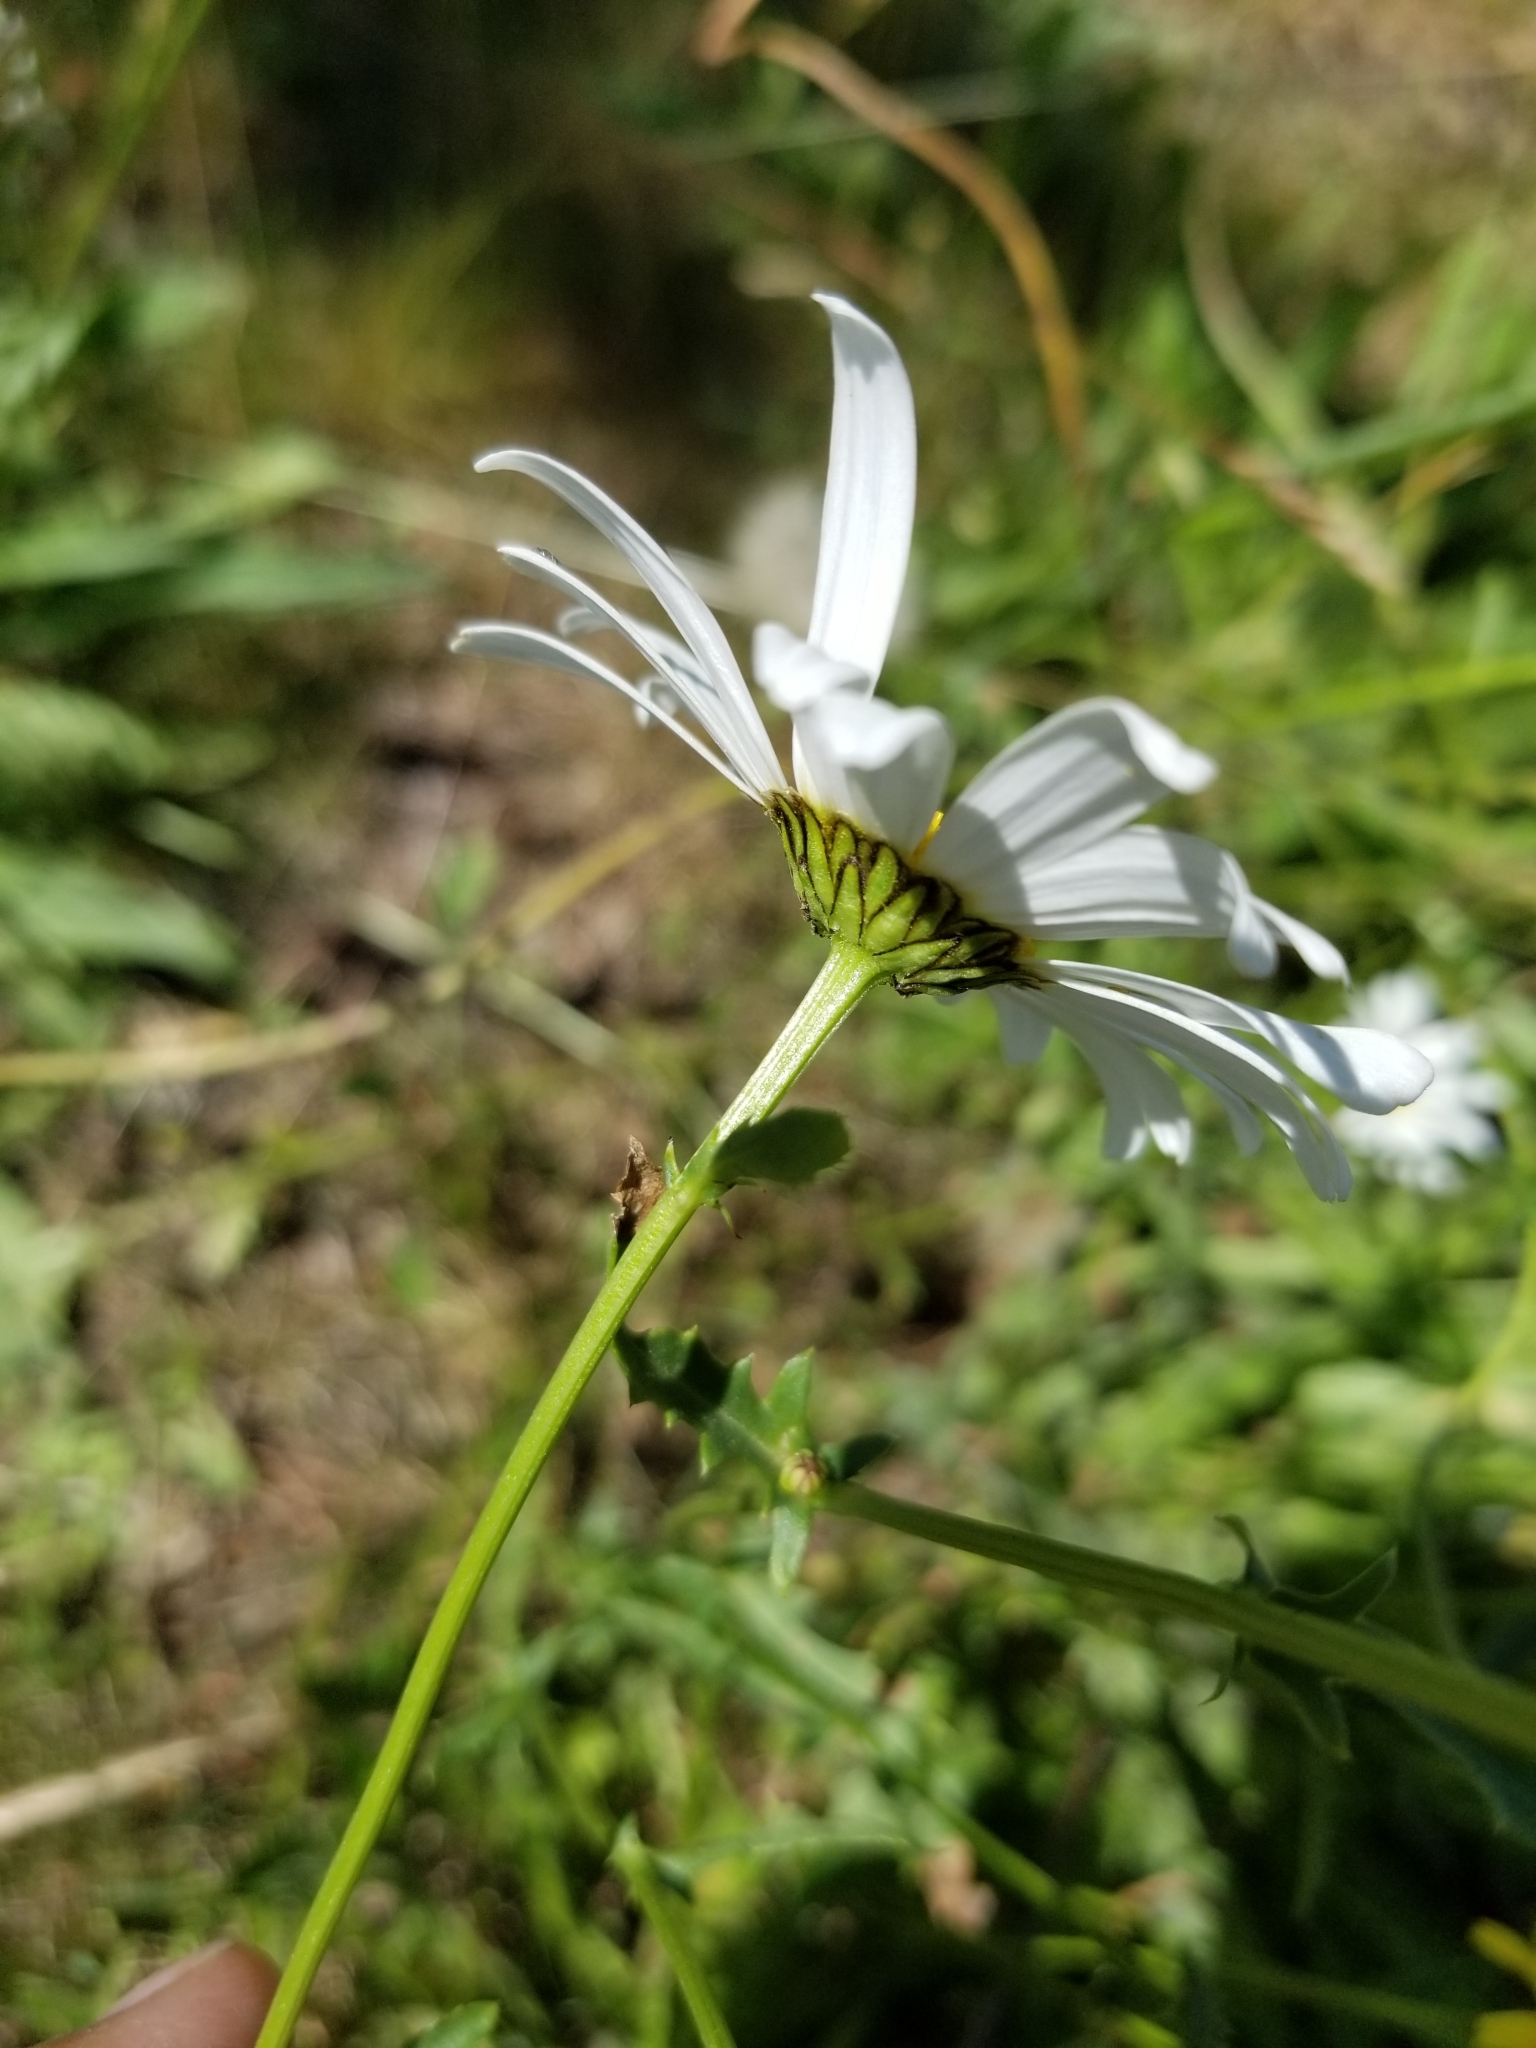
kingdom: Plantae
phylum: Tracheophyta
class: Magnoliopsida
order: Asterales
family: Asteraceae
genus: Leucanthemum
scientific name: Leucanthemum vulgare
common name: Oxeye daisy
